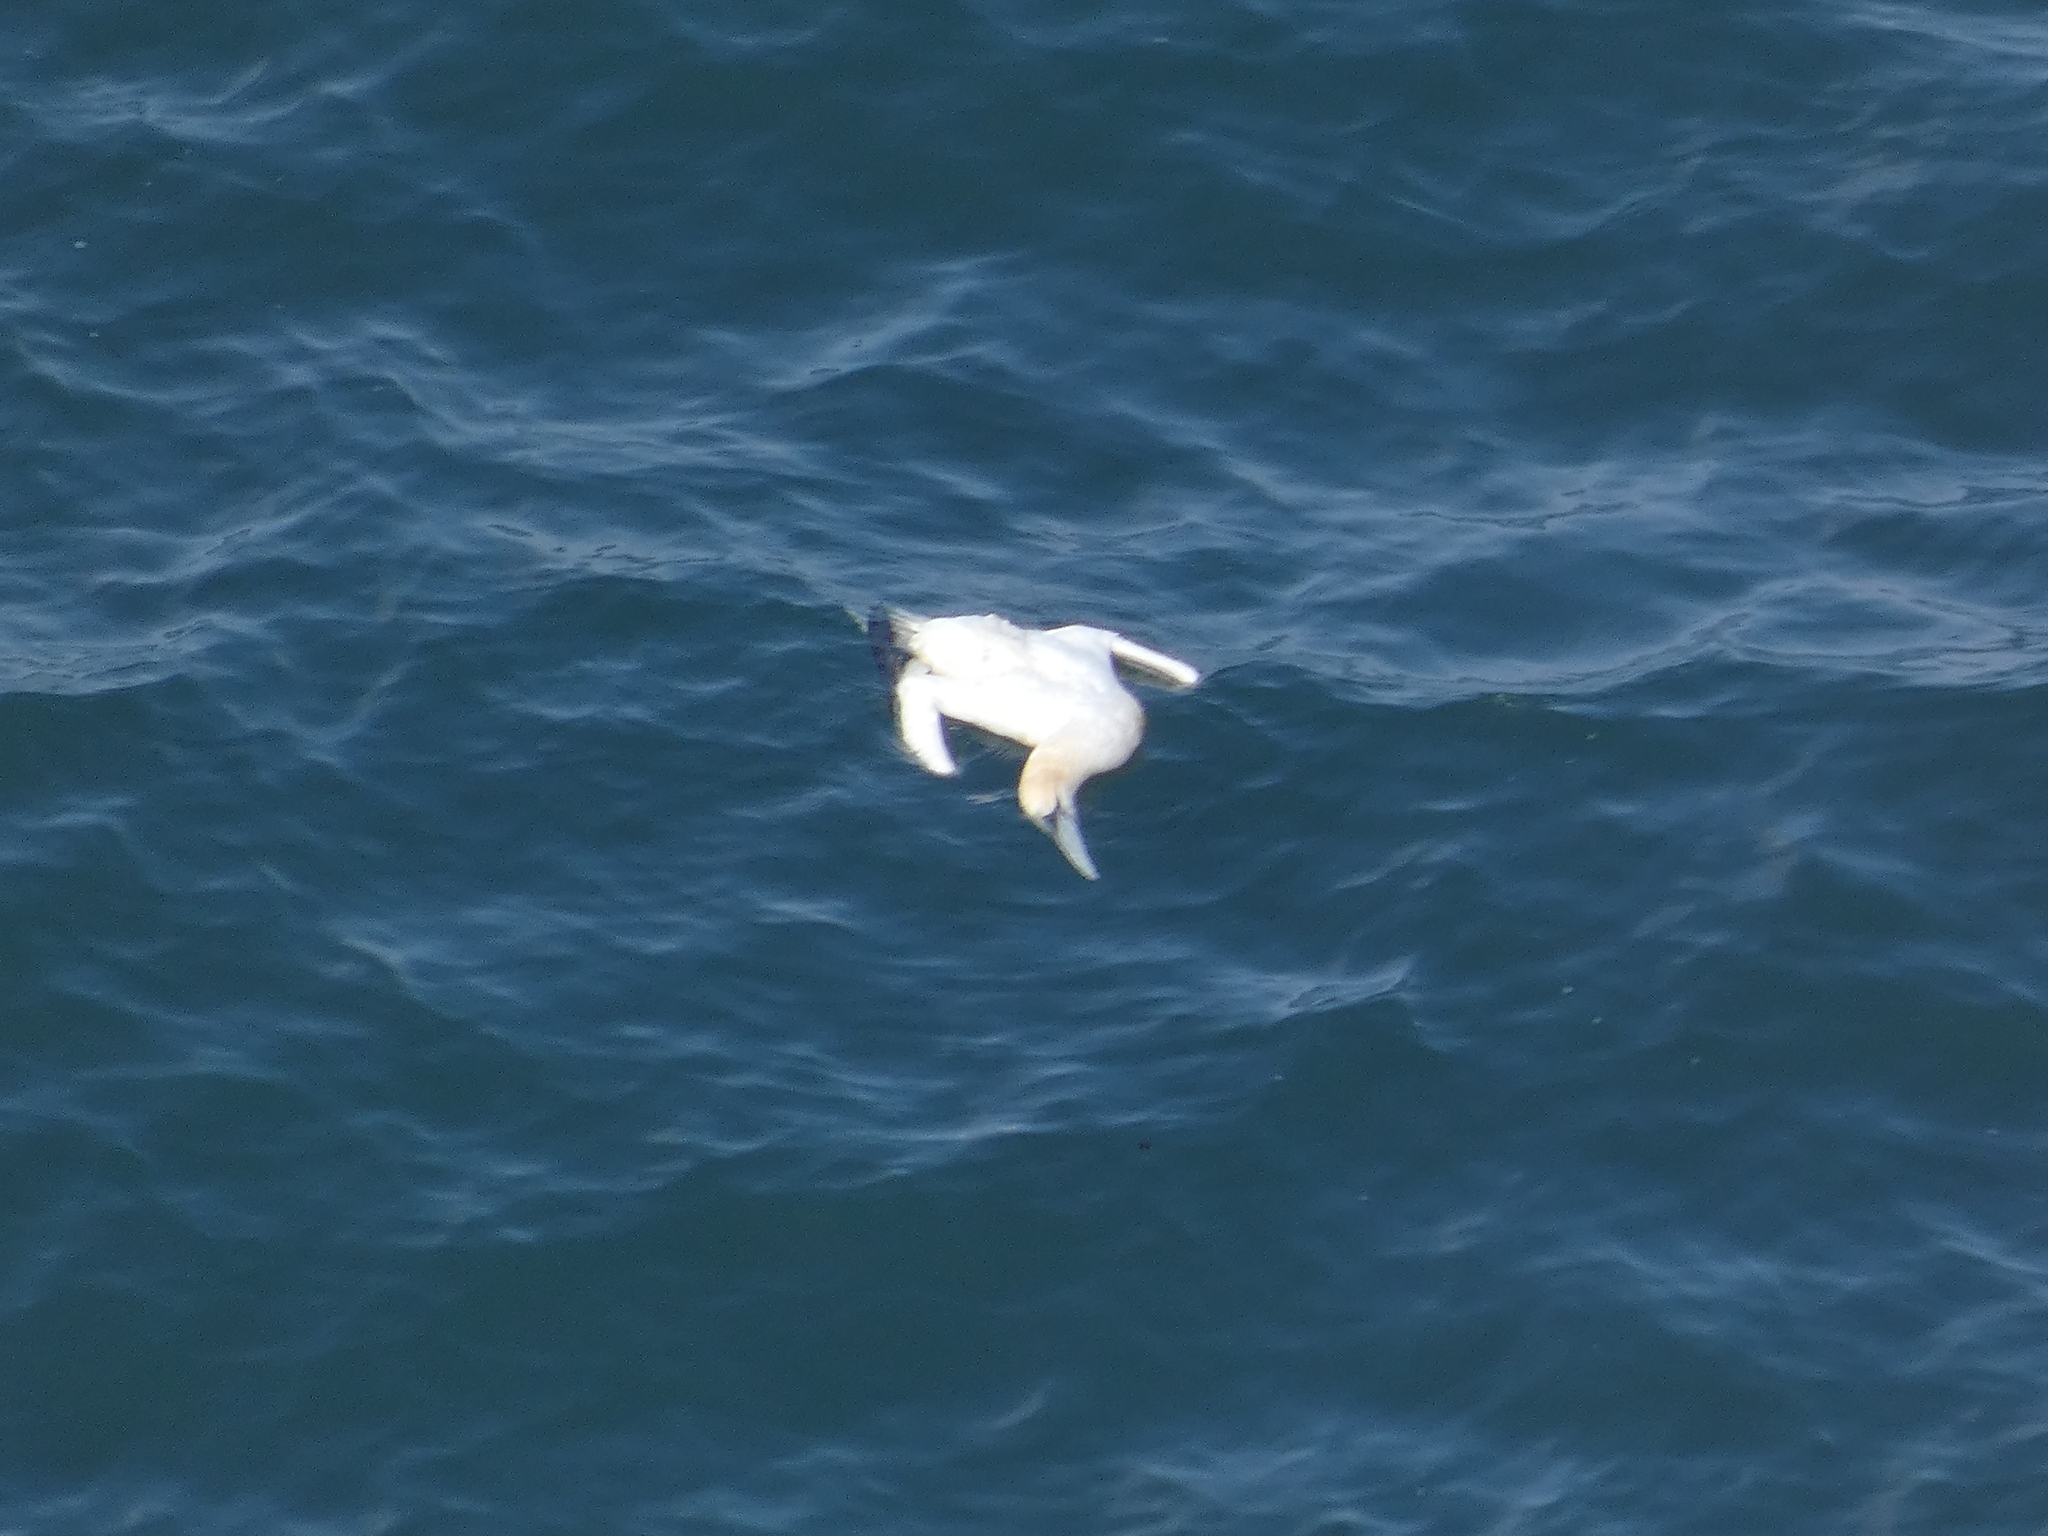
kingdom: Animalia
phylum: Chordata
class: Aves
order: Suliformes
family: Sulidae
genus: Morus
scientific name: Morus bassanus
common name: Northern gannet
